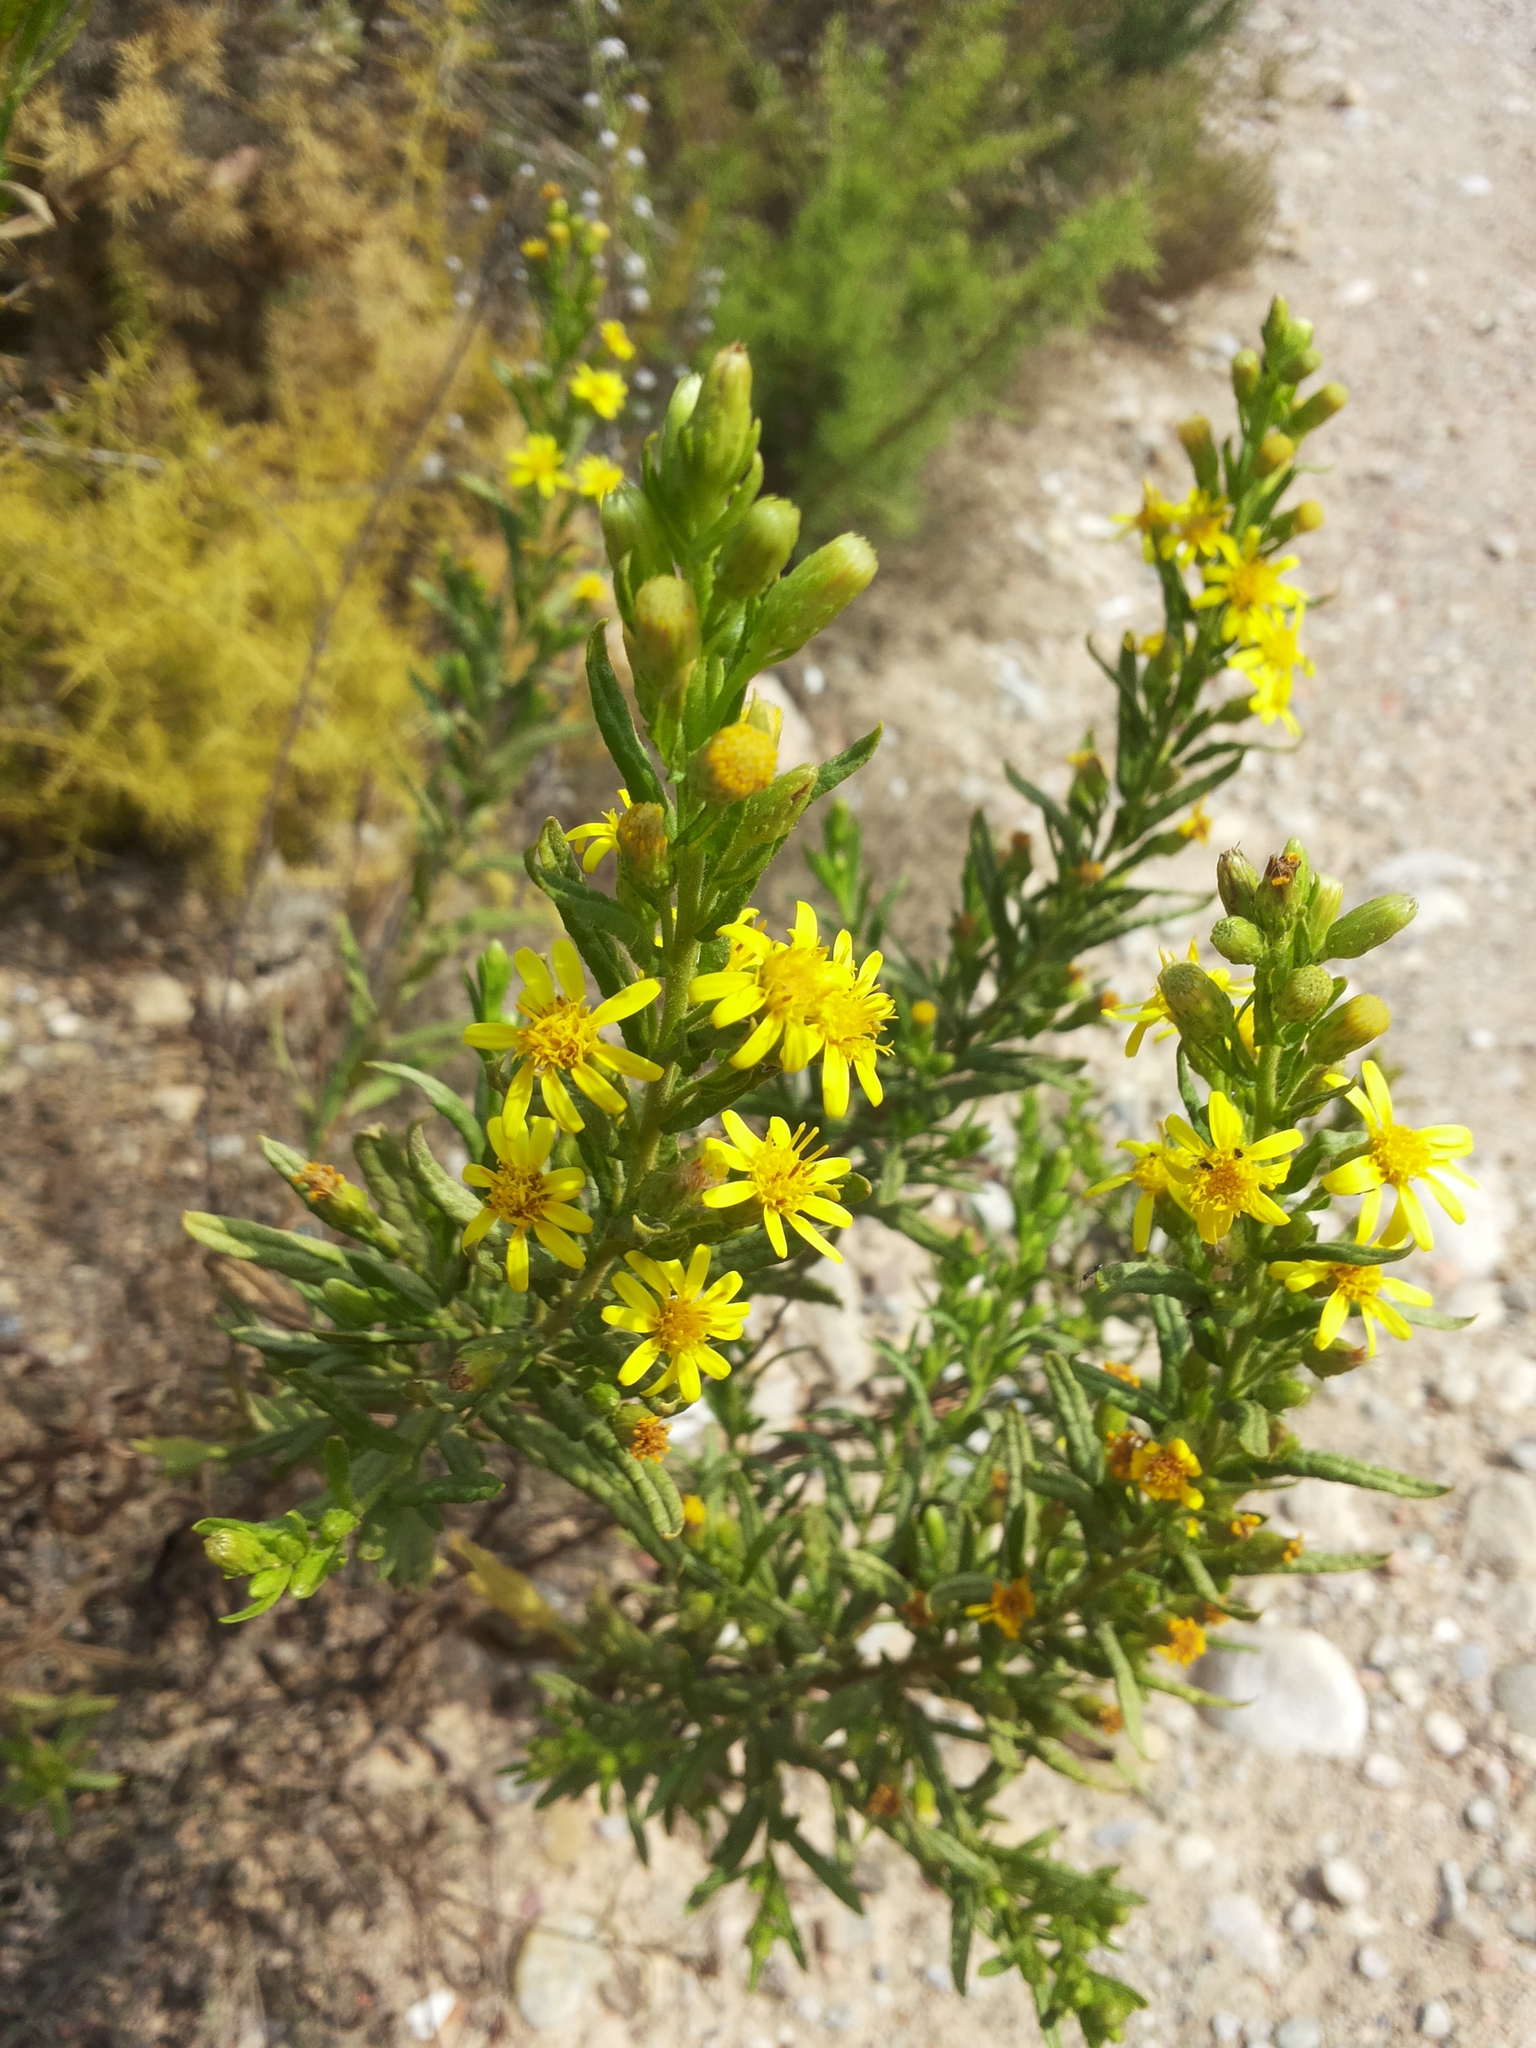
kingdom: Plantae
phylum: Tracheophyta
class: Magnoliopsida
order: Asterales
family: Asteraceae
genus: Dittrichia
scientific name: Dittrichia viscosa
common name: Woody fleabane
